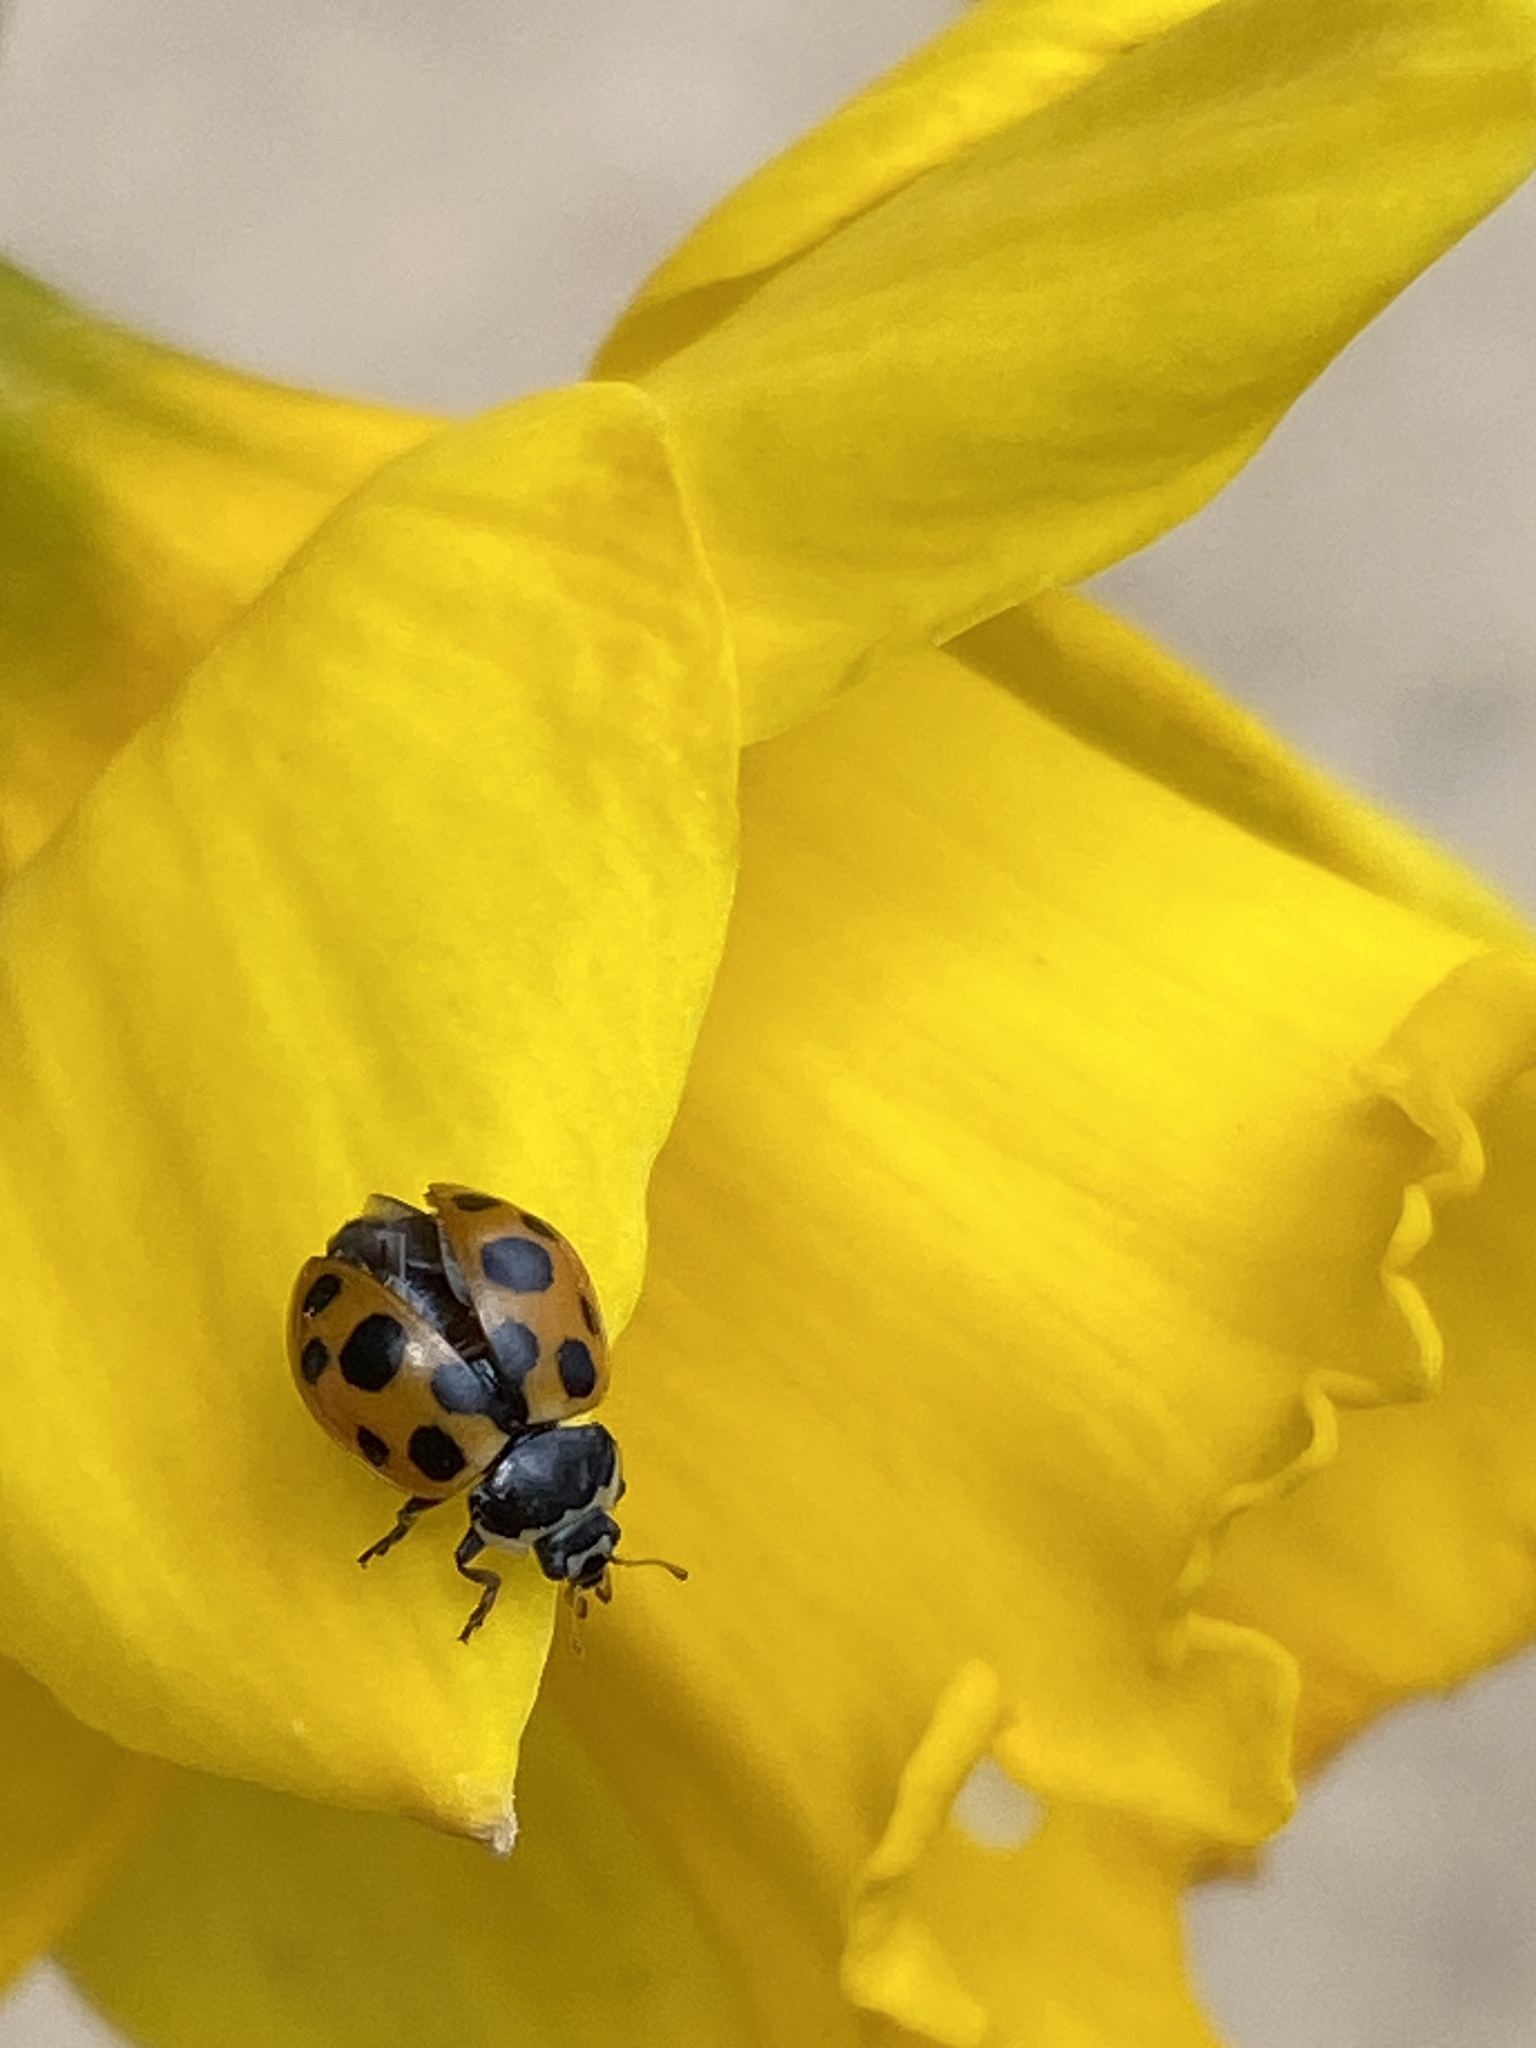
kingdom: Animalia
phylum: Arthropoda
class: Insecta
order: Coleoptera
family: Coccinellidae
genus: Ceratomegilla
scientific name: Ceratomegilla notata
